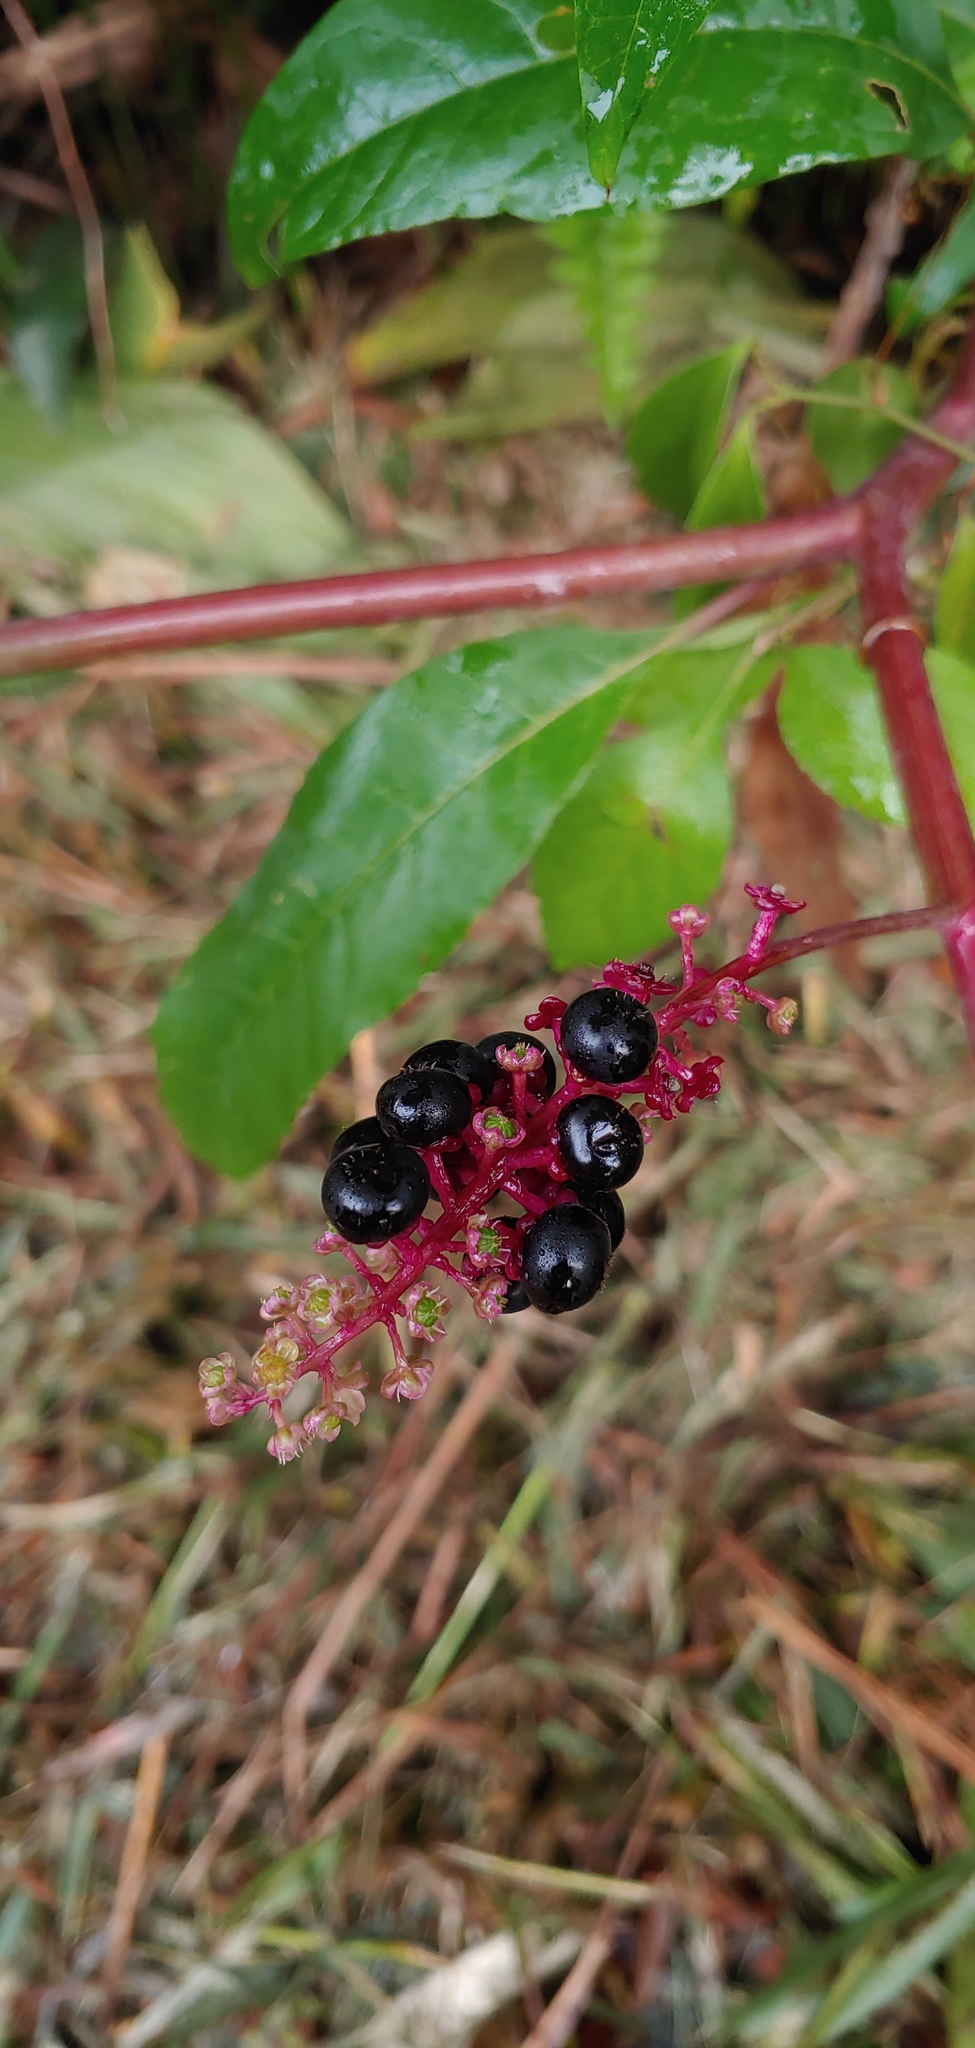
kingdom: Plantae
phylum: Tracheophyta
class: Magnoliopsida
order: Caryophyllales
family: Phytolaccaceae
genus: Phytolacca
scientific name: Phytolacca americana
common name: American pokeweed
